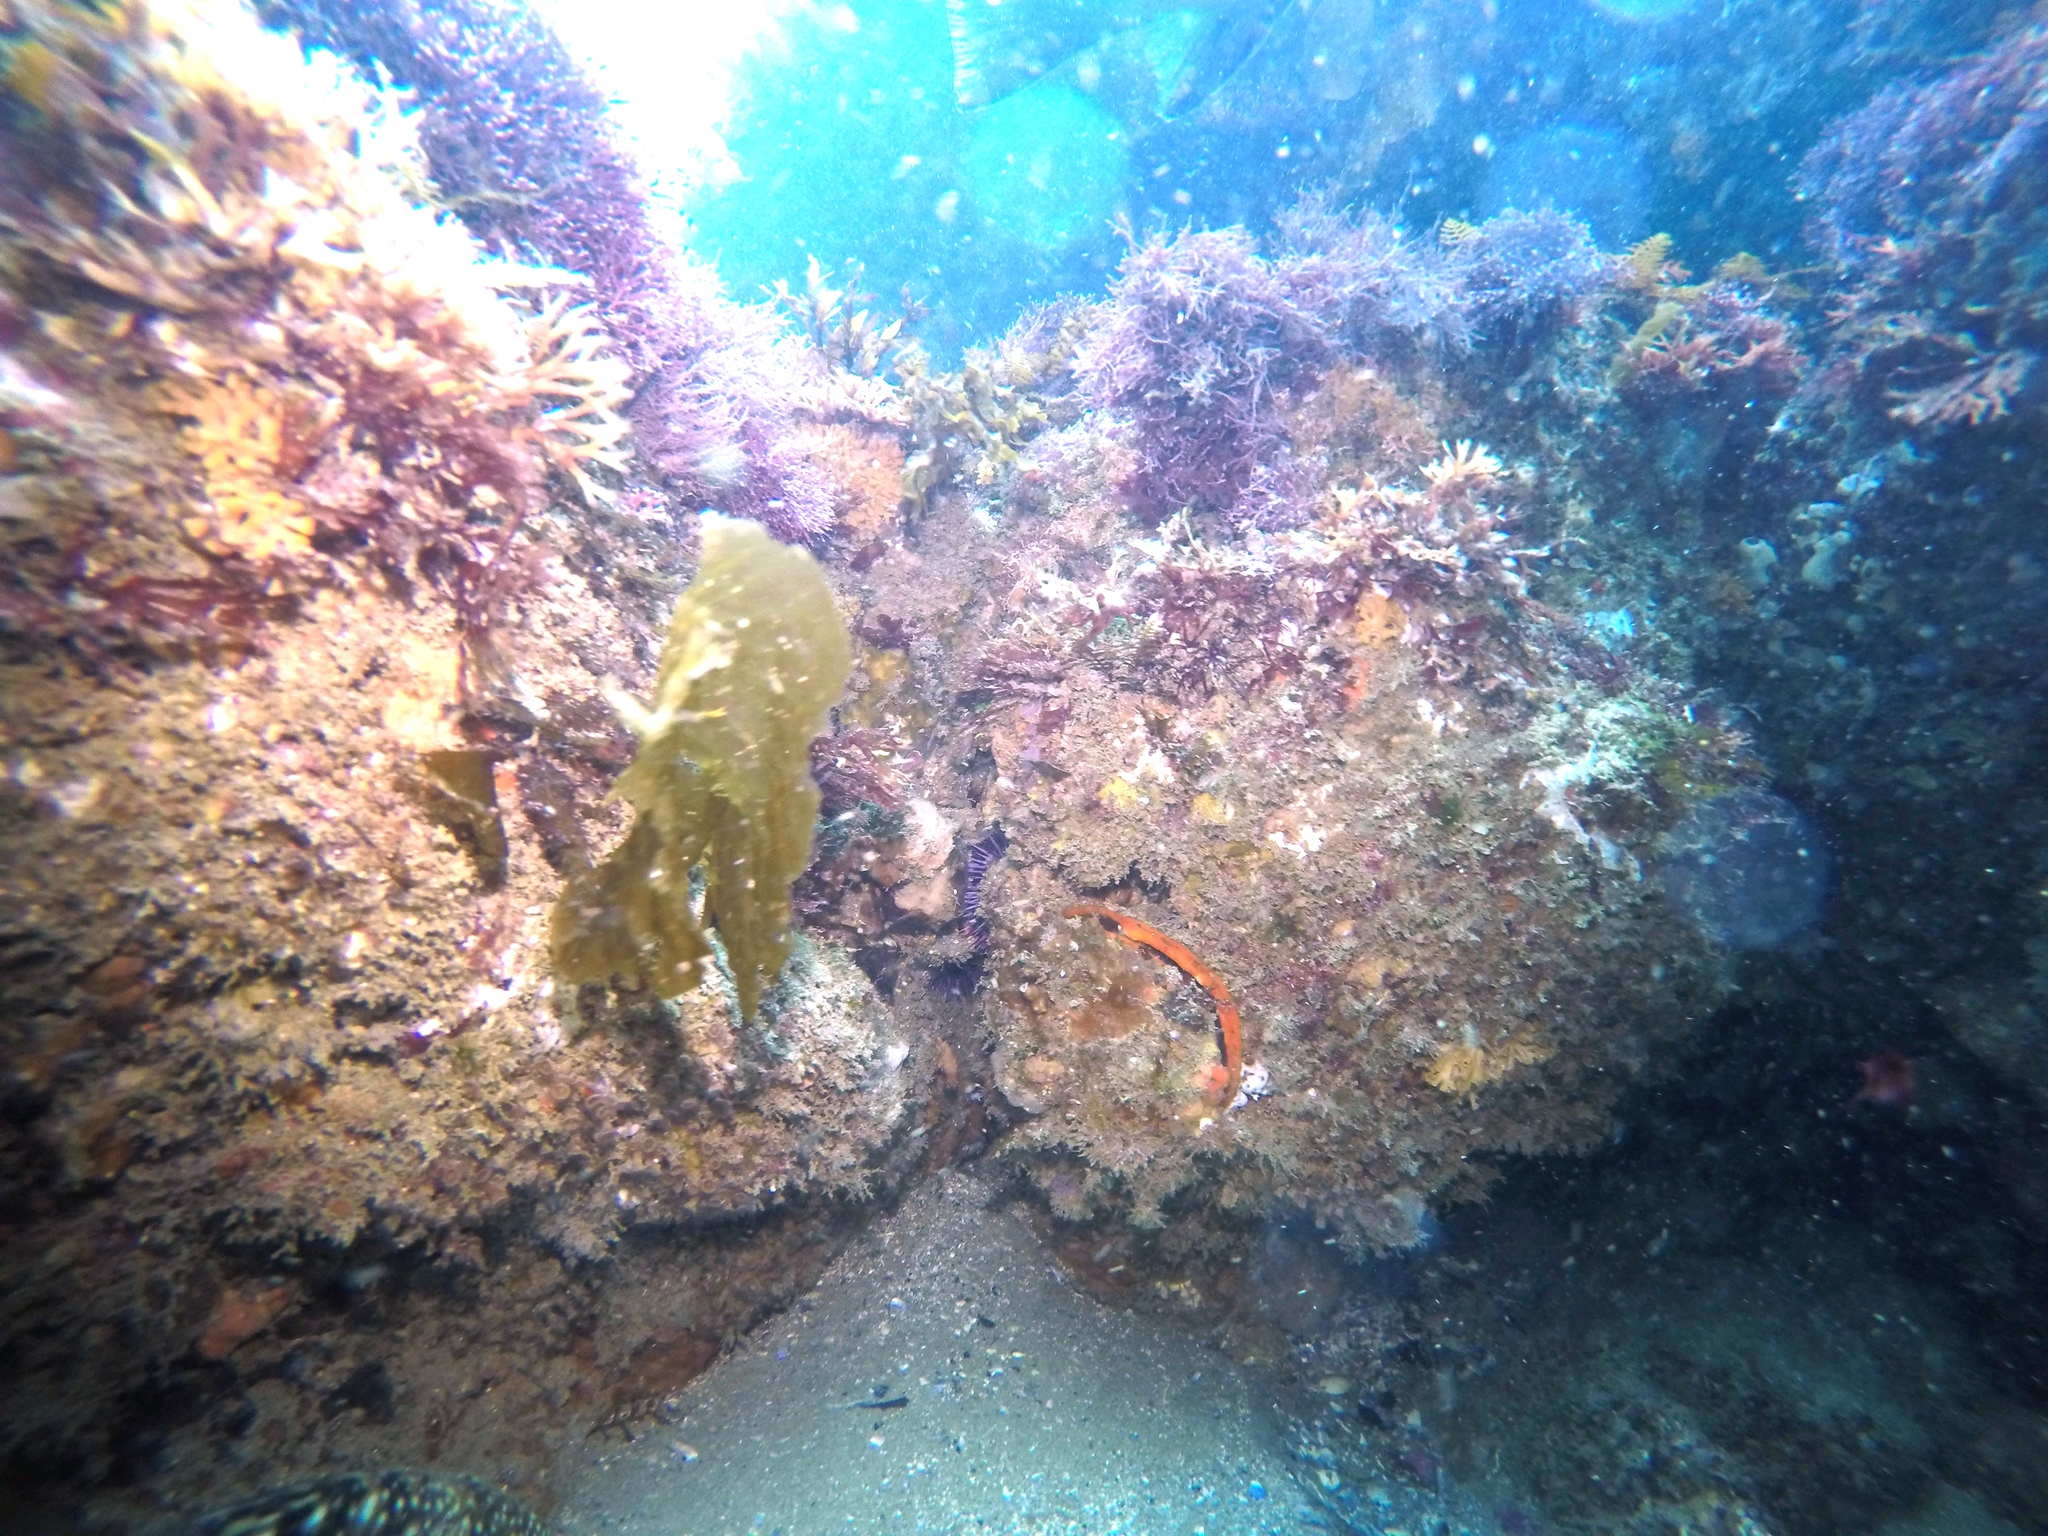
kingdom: Animalia
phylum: Mollusca
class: Bivalvia
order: Pectinida
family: Pectinidae
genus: Crassadoma
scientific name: Crassadoma gigantea
